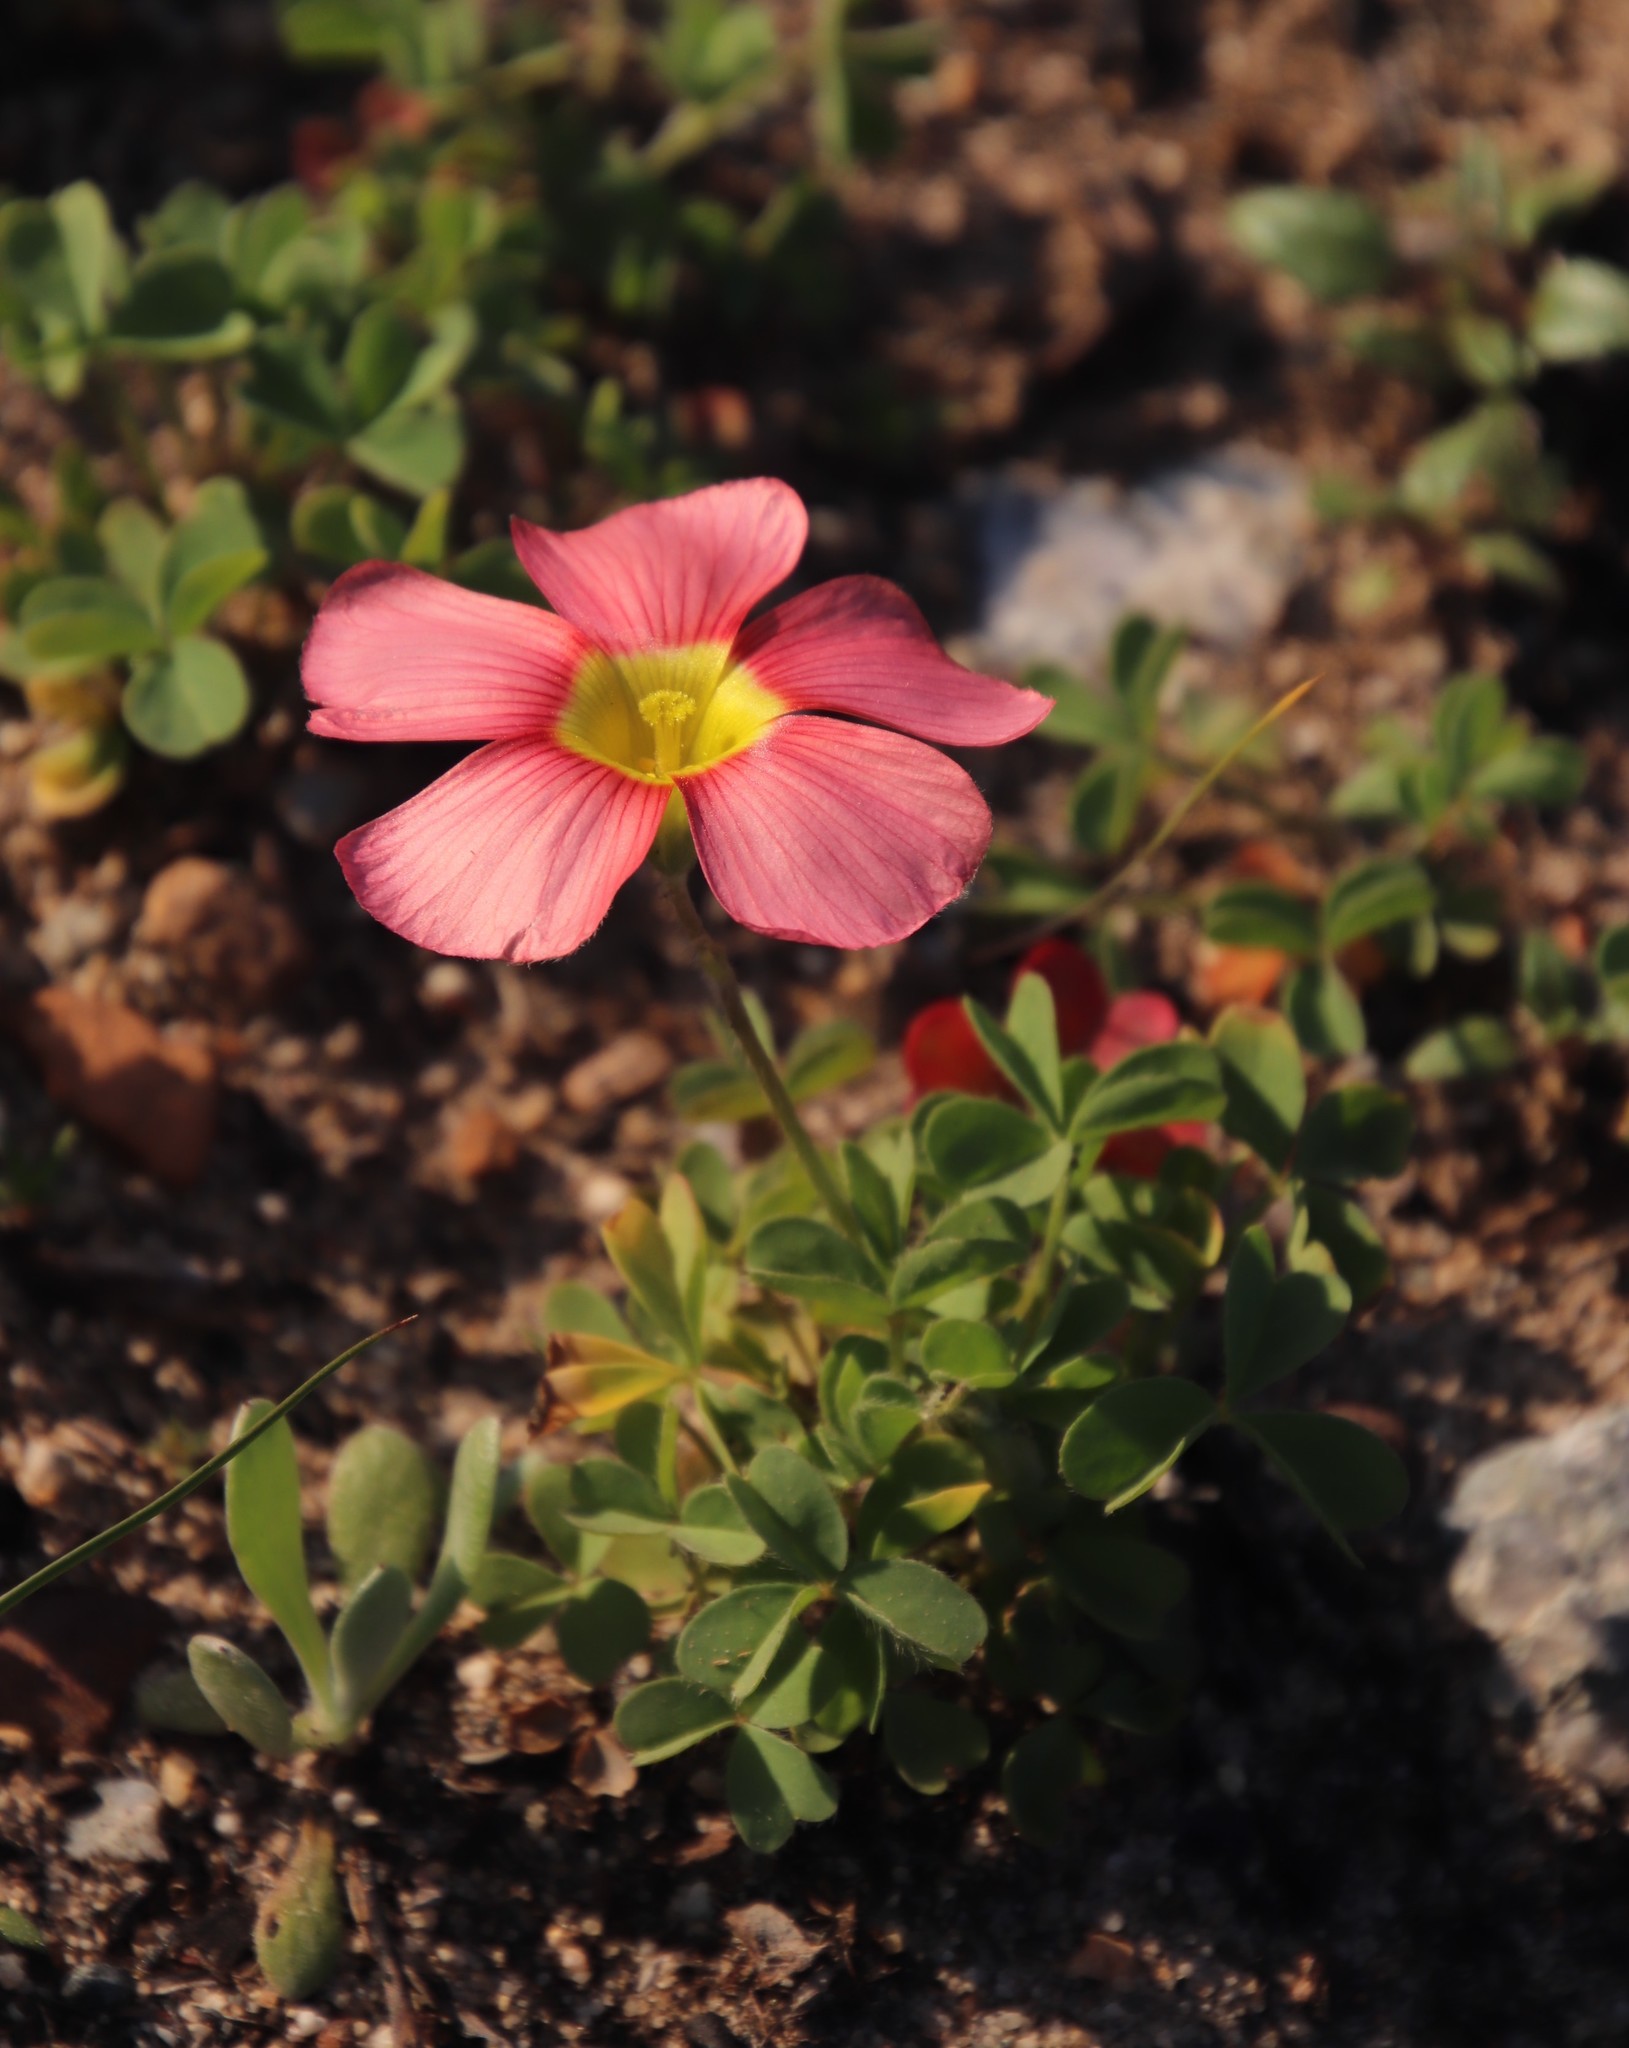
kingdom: Plantae
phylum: Tracheophyta
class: Magnoliopsida
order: Oxalidales
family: Oxalidaceae
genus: Oxalis
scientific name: Oxalis obtusa
